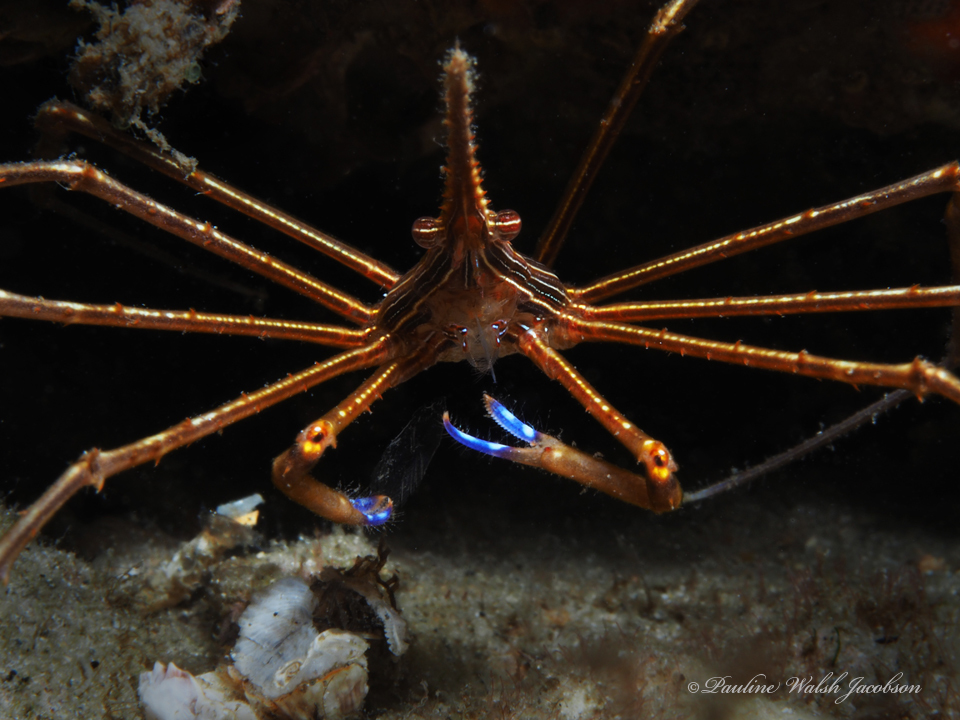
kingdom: Animalia
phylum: Arthropoda
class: Malacostraca
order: Decapoda
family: Inachoididae
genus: Stenorhynchus
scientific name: Stenorhynchus seticornis
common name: Arrow crab
